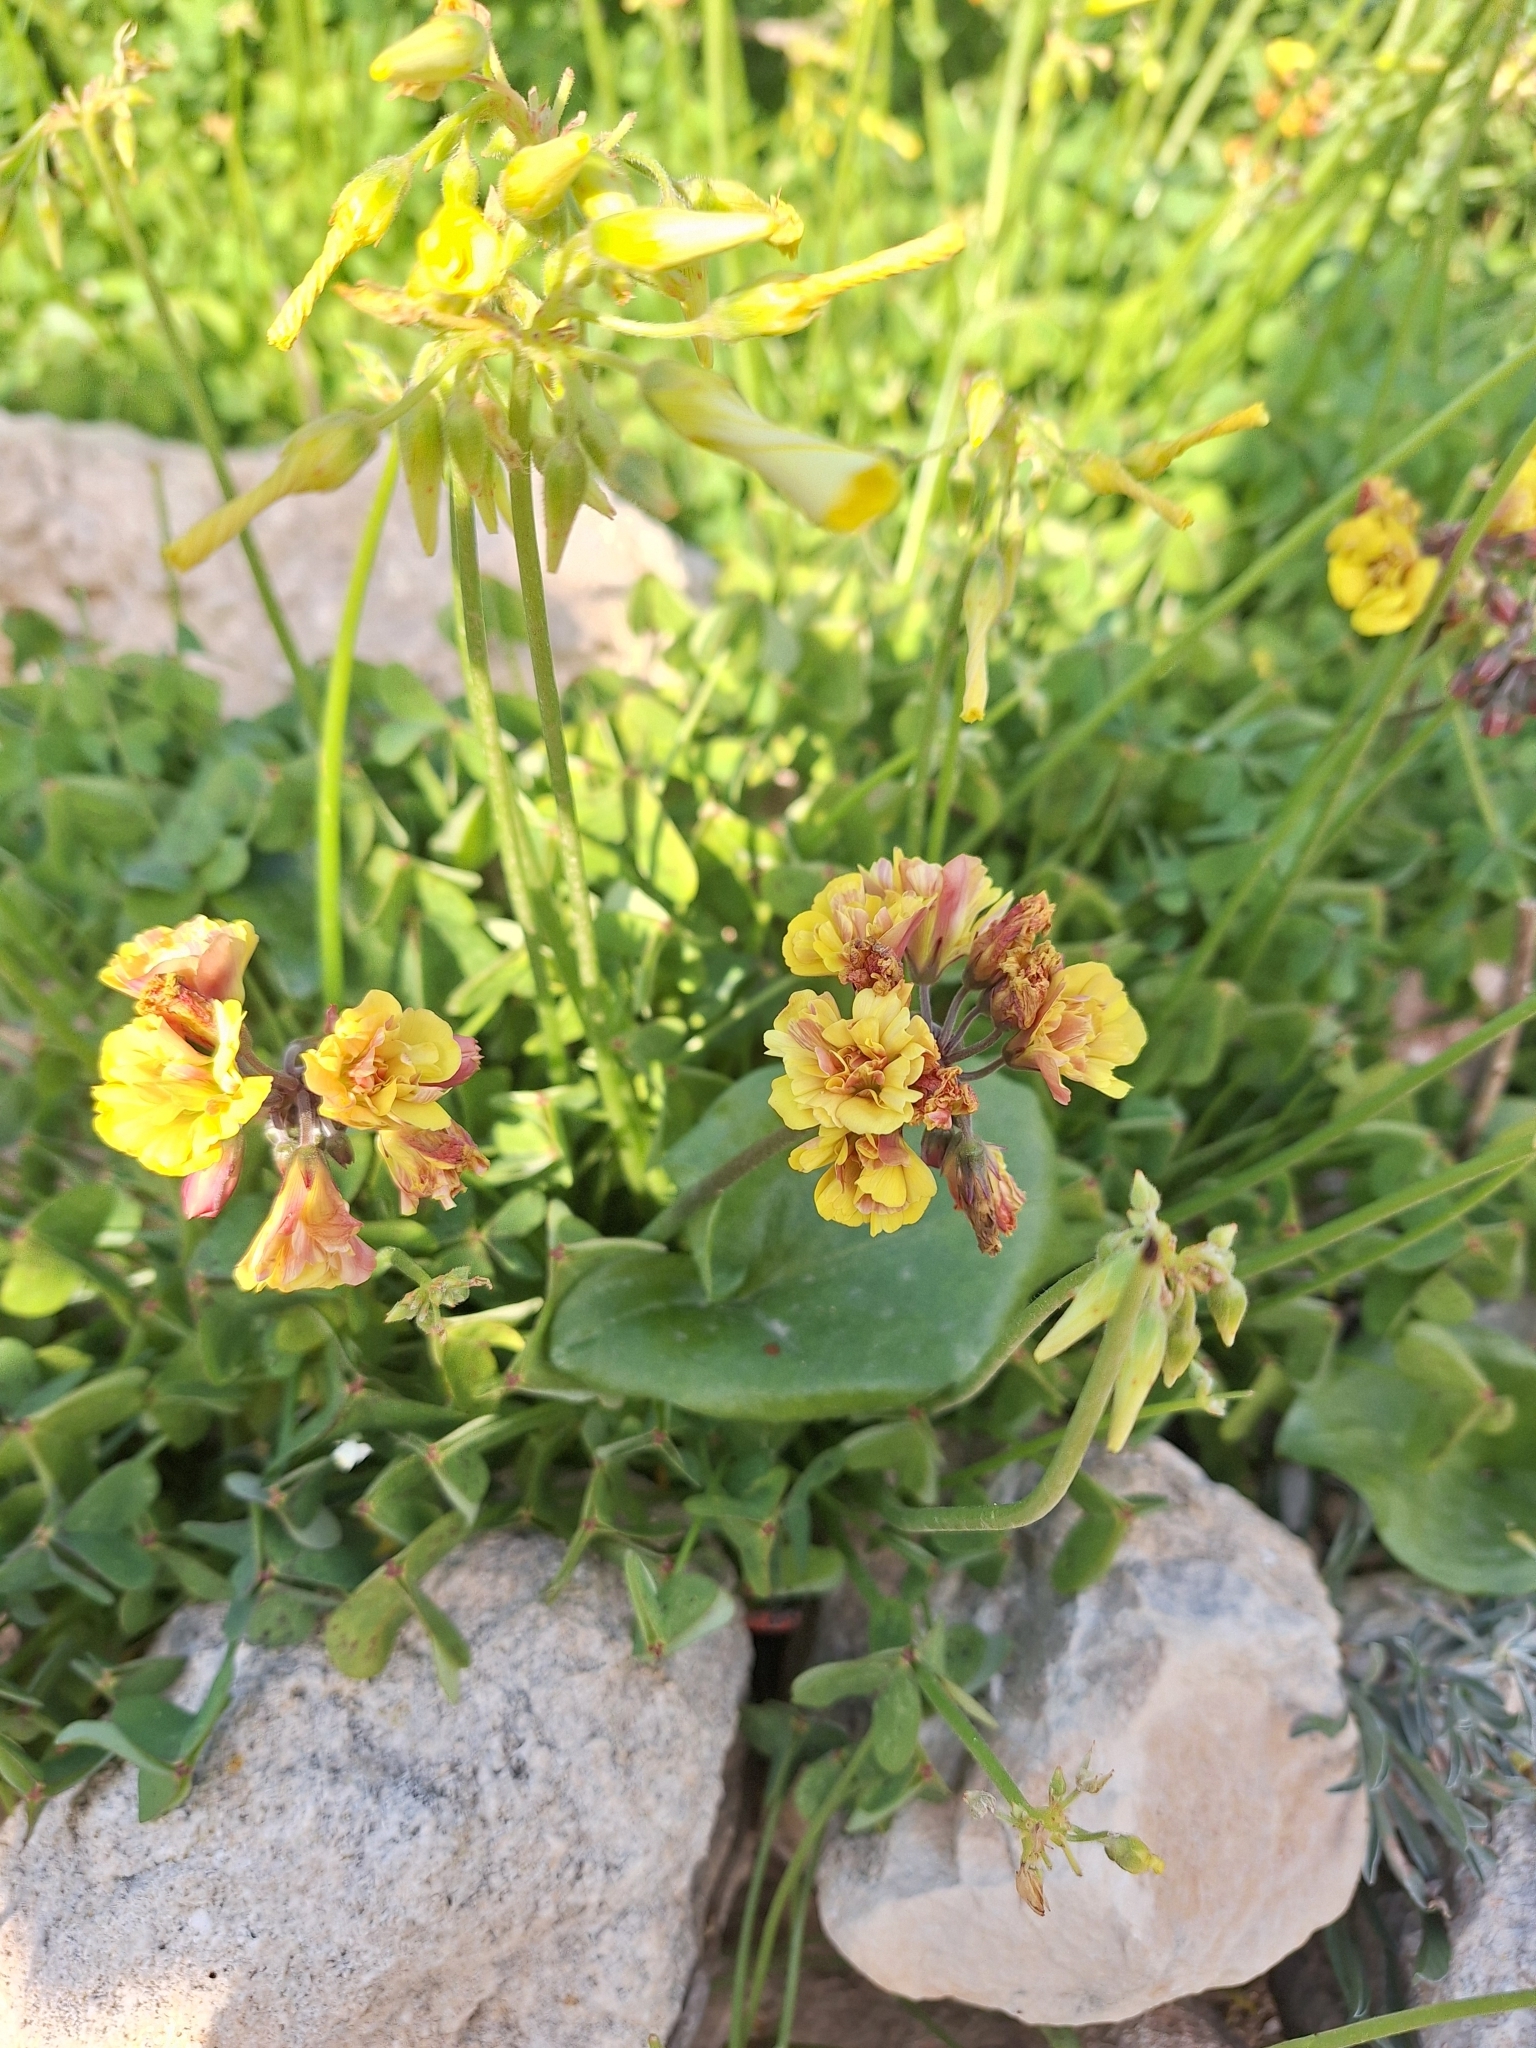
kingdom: Plantae
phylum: Tracheophyta
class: Magnoliopsida
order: Oxalidales
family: Oxalidaceae
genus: Oxalis
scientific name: Oxalis pes-caprae
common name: Bermuda-buttercup
